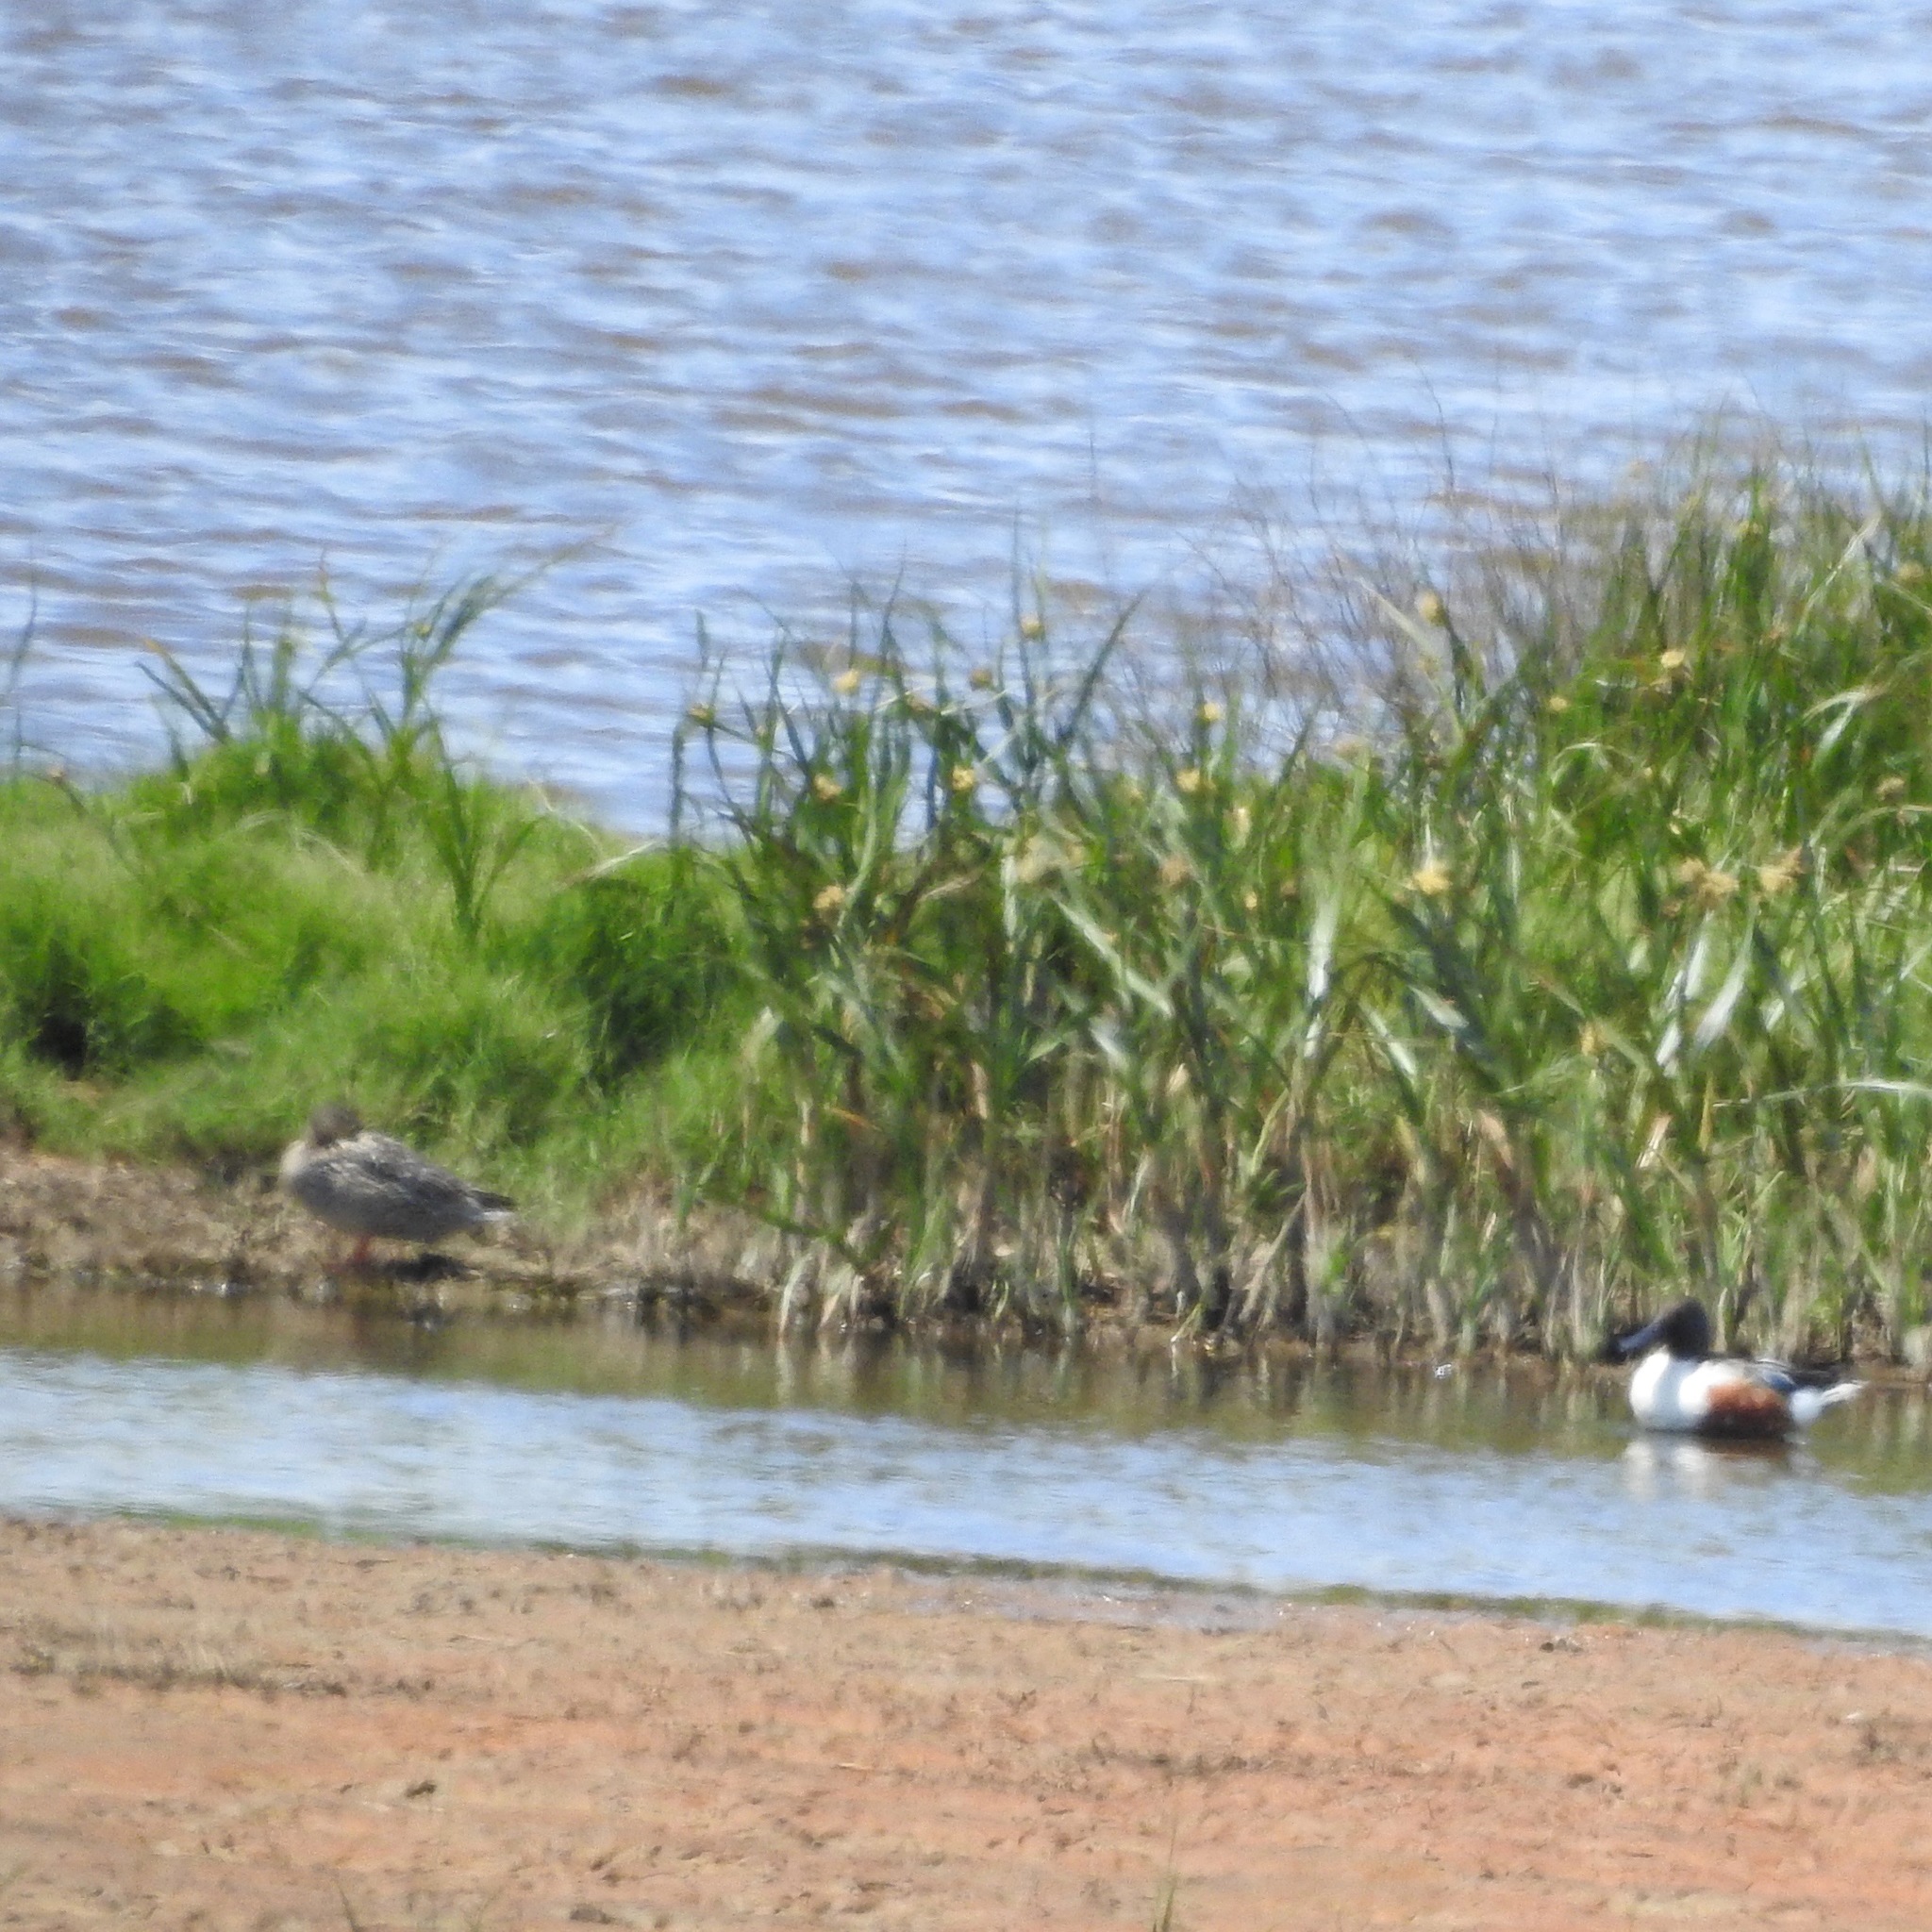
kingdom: Animalia
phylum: Chordata
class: Aves
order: Anseriformes
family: Anatidae
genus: Spatula
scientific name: Spatula clypeata
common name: Northern shoveler
